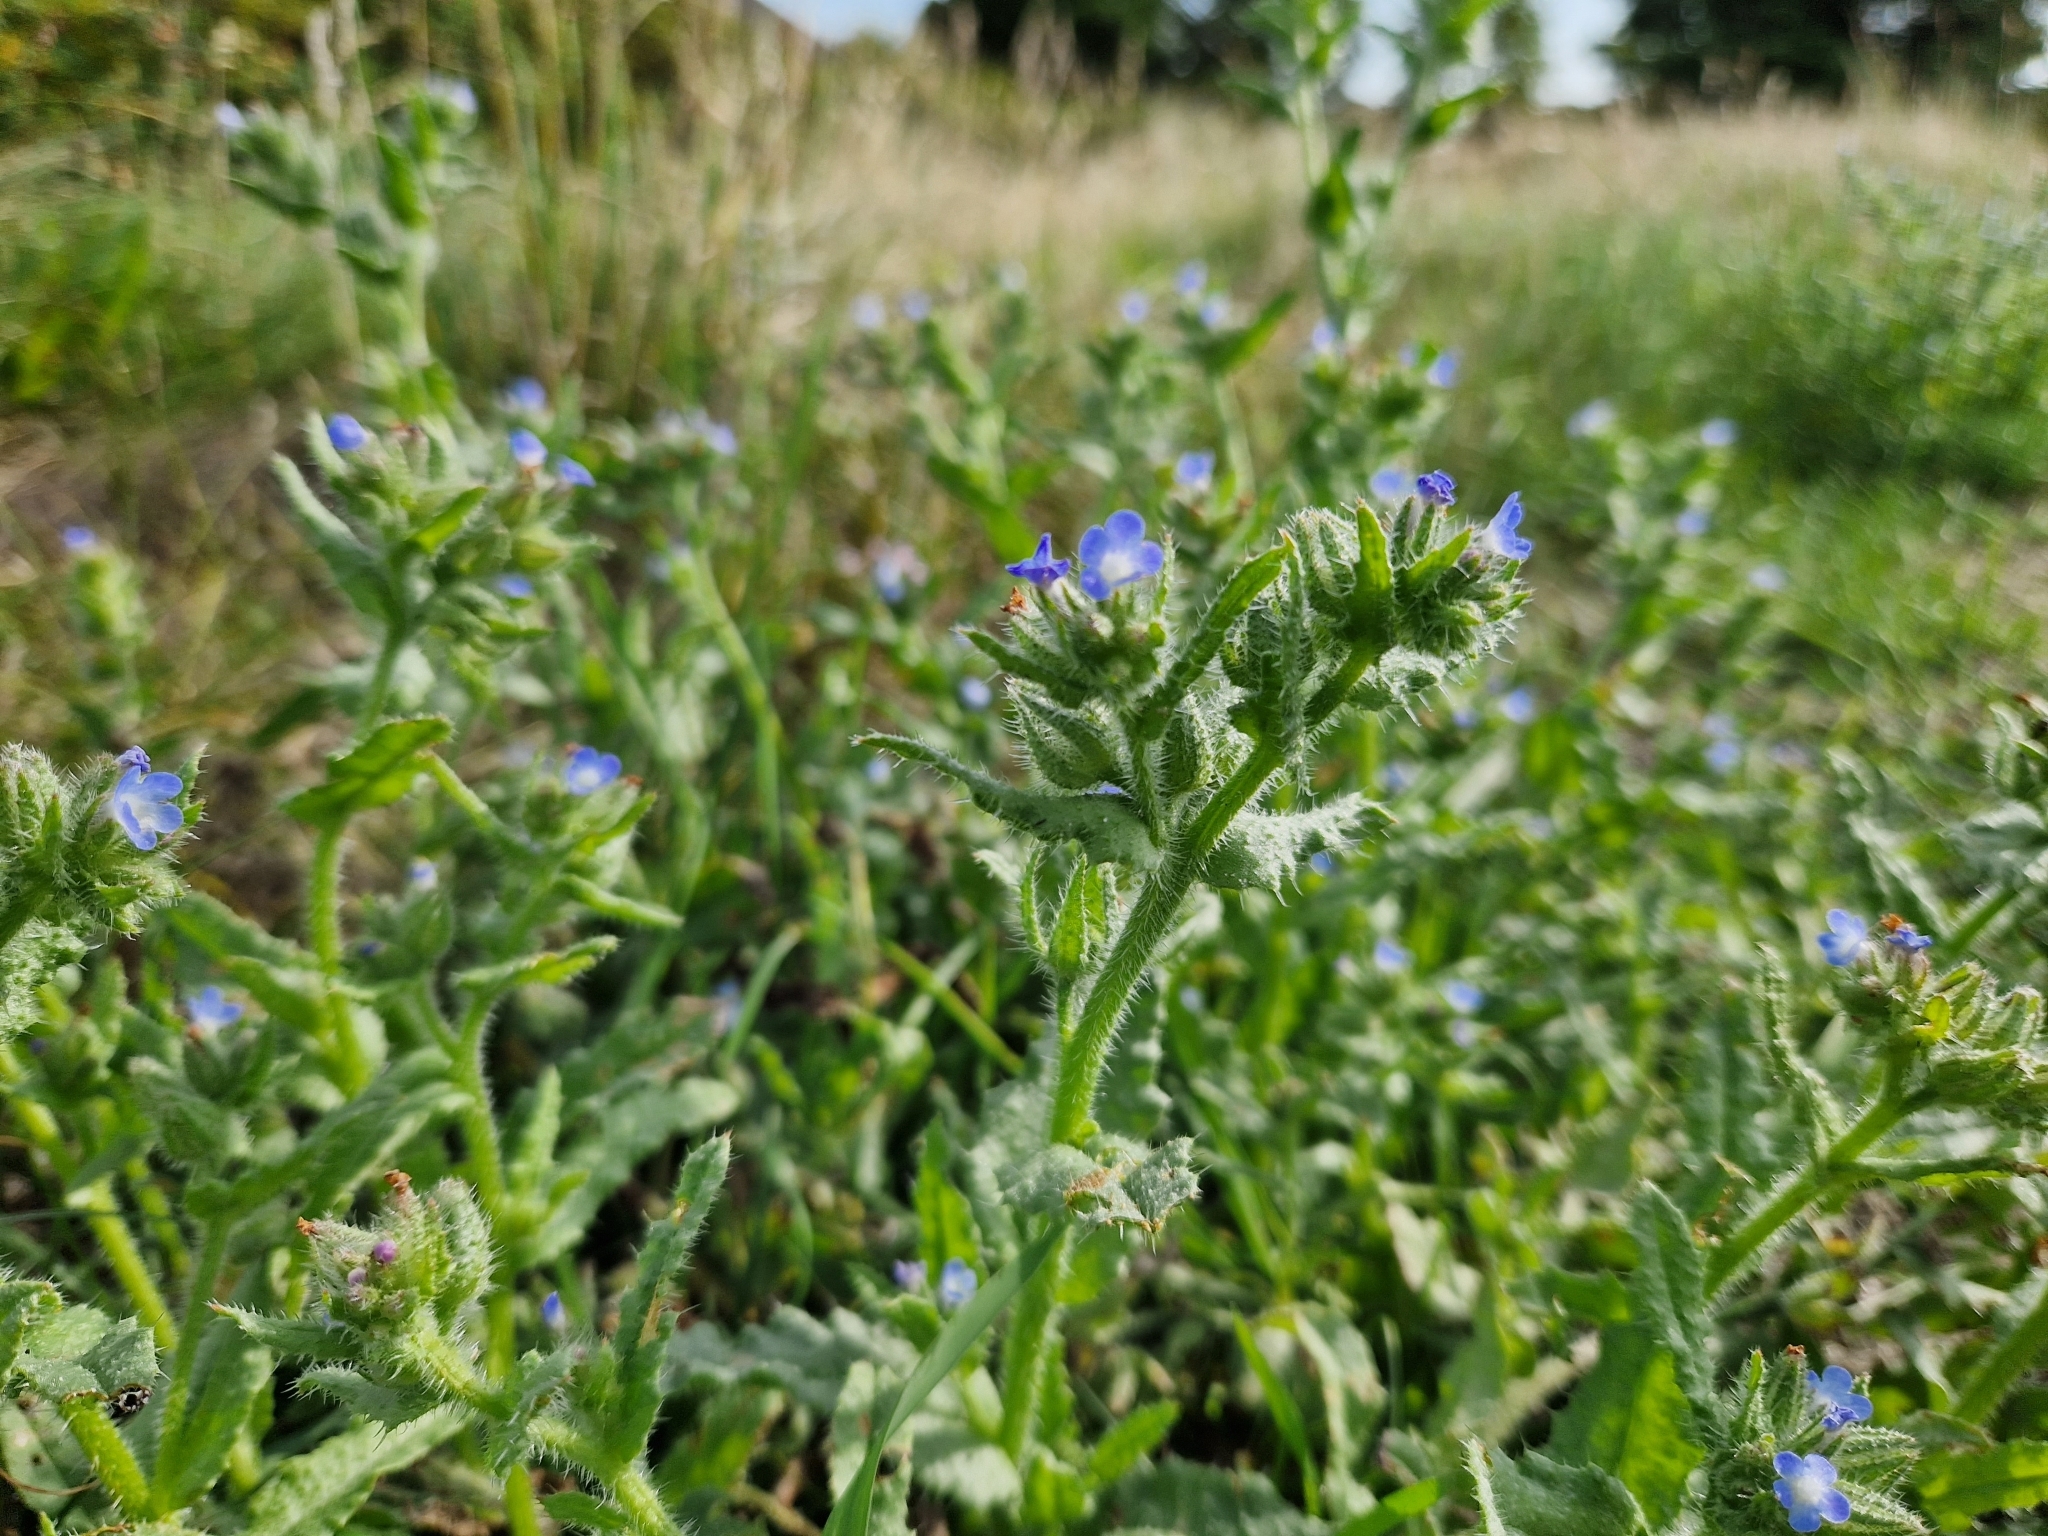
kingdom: Plantae
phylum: Tracheophyta
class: Magnoliopsida
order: Boraginales
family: Boraginaceae
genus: Lycopsis
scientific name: Lycopsis arvensis
